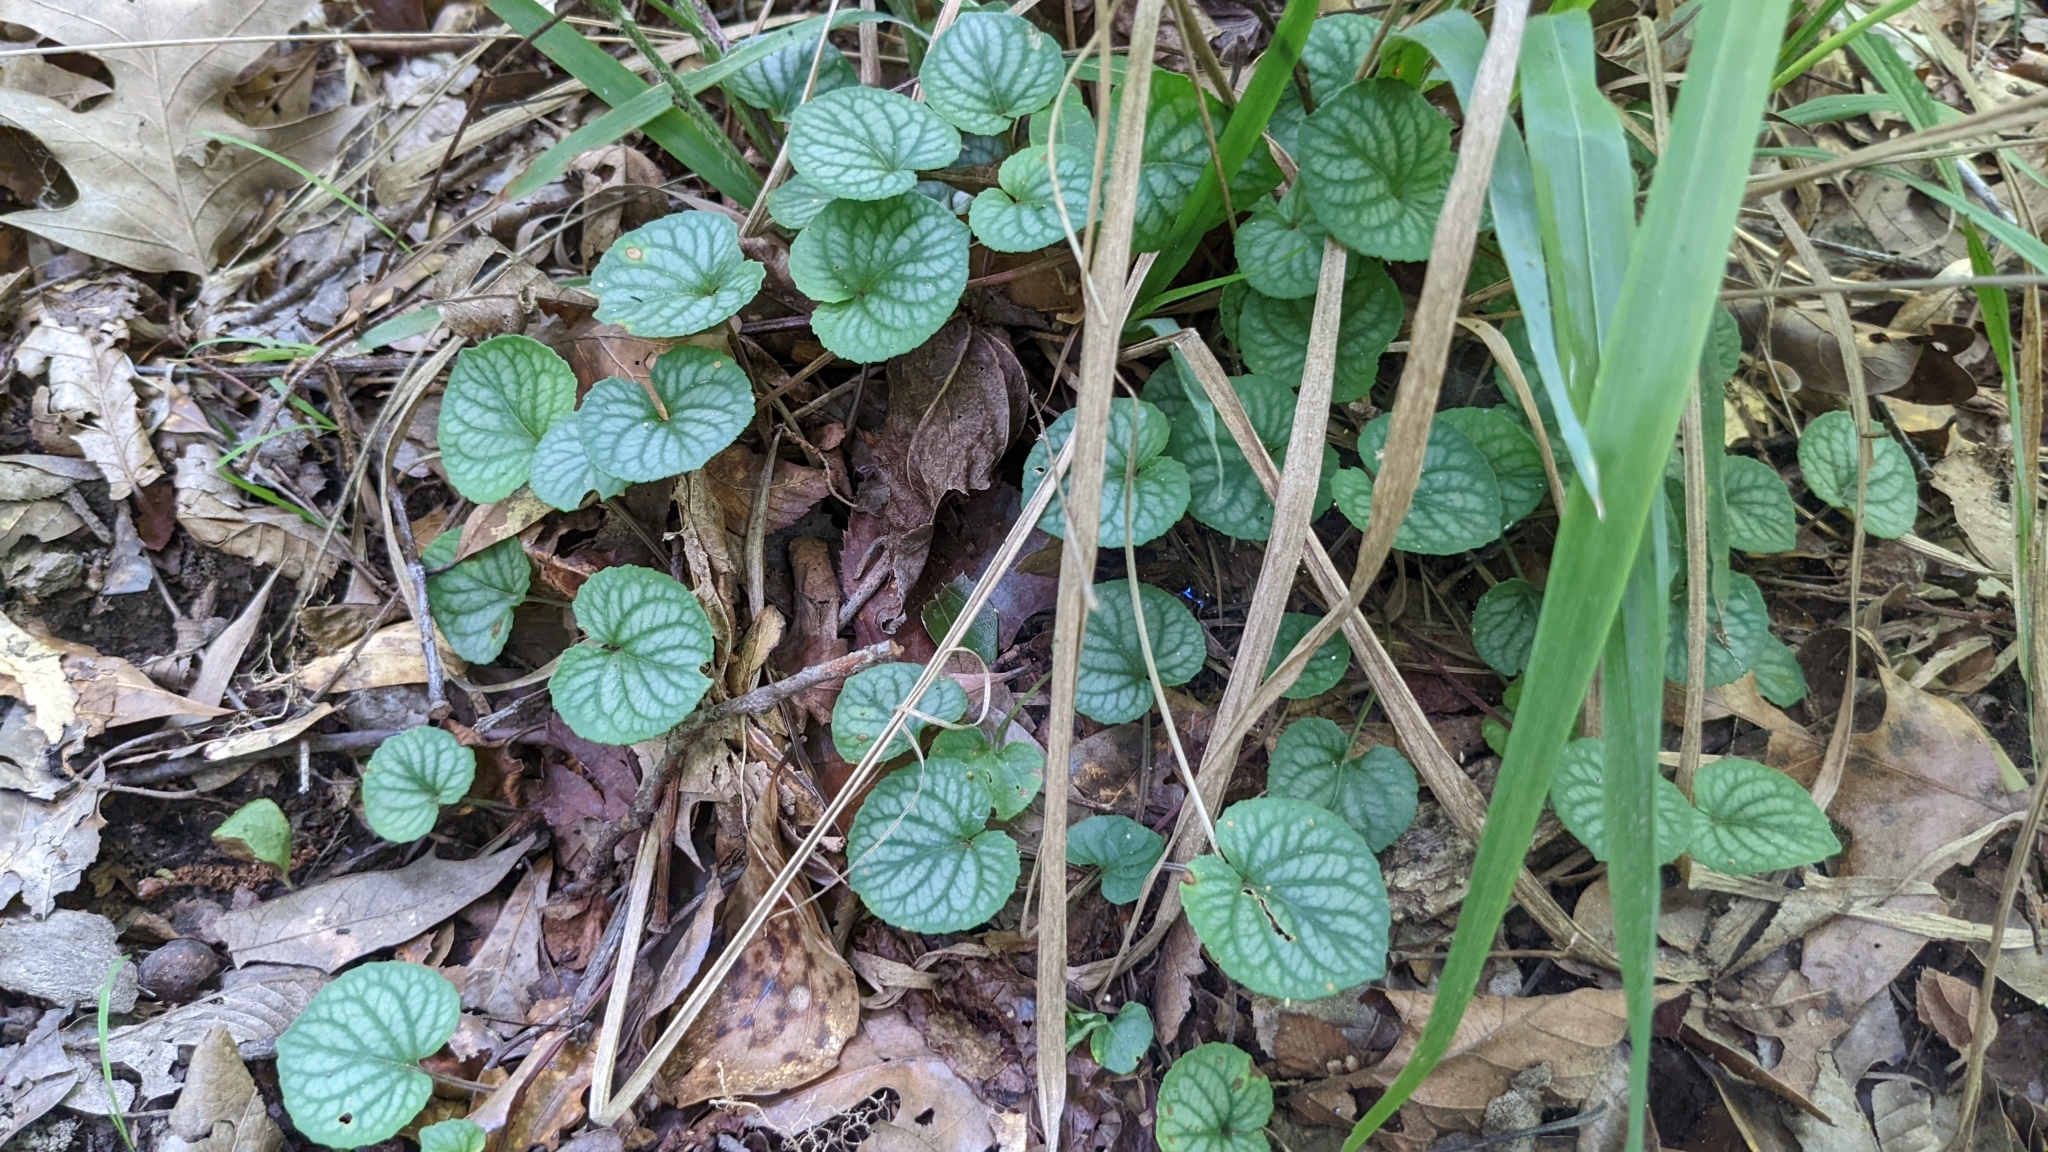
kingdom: Plantae
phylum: Tracheophyta
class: Magnoliopsida
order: Malpighiales
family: Violaceae
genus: Viola
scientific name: Viola walteri
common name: Prostrate southern violet
